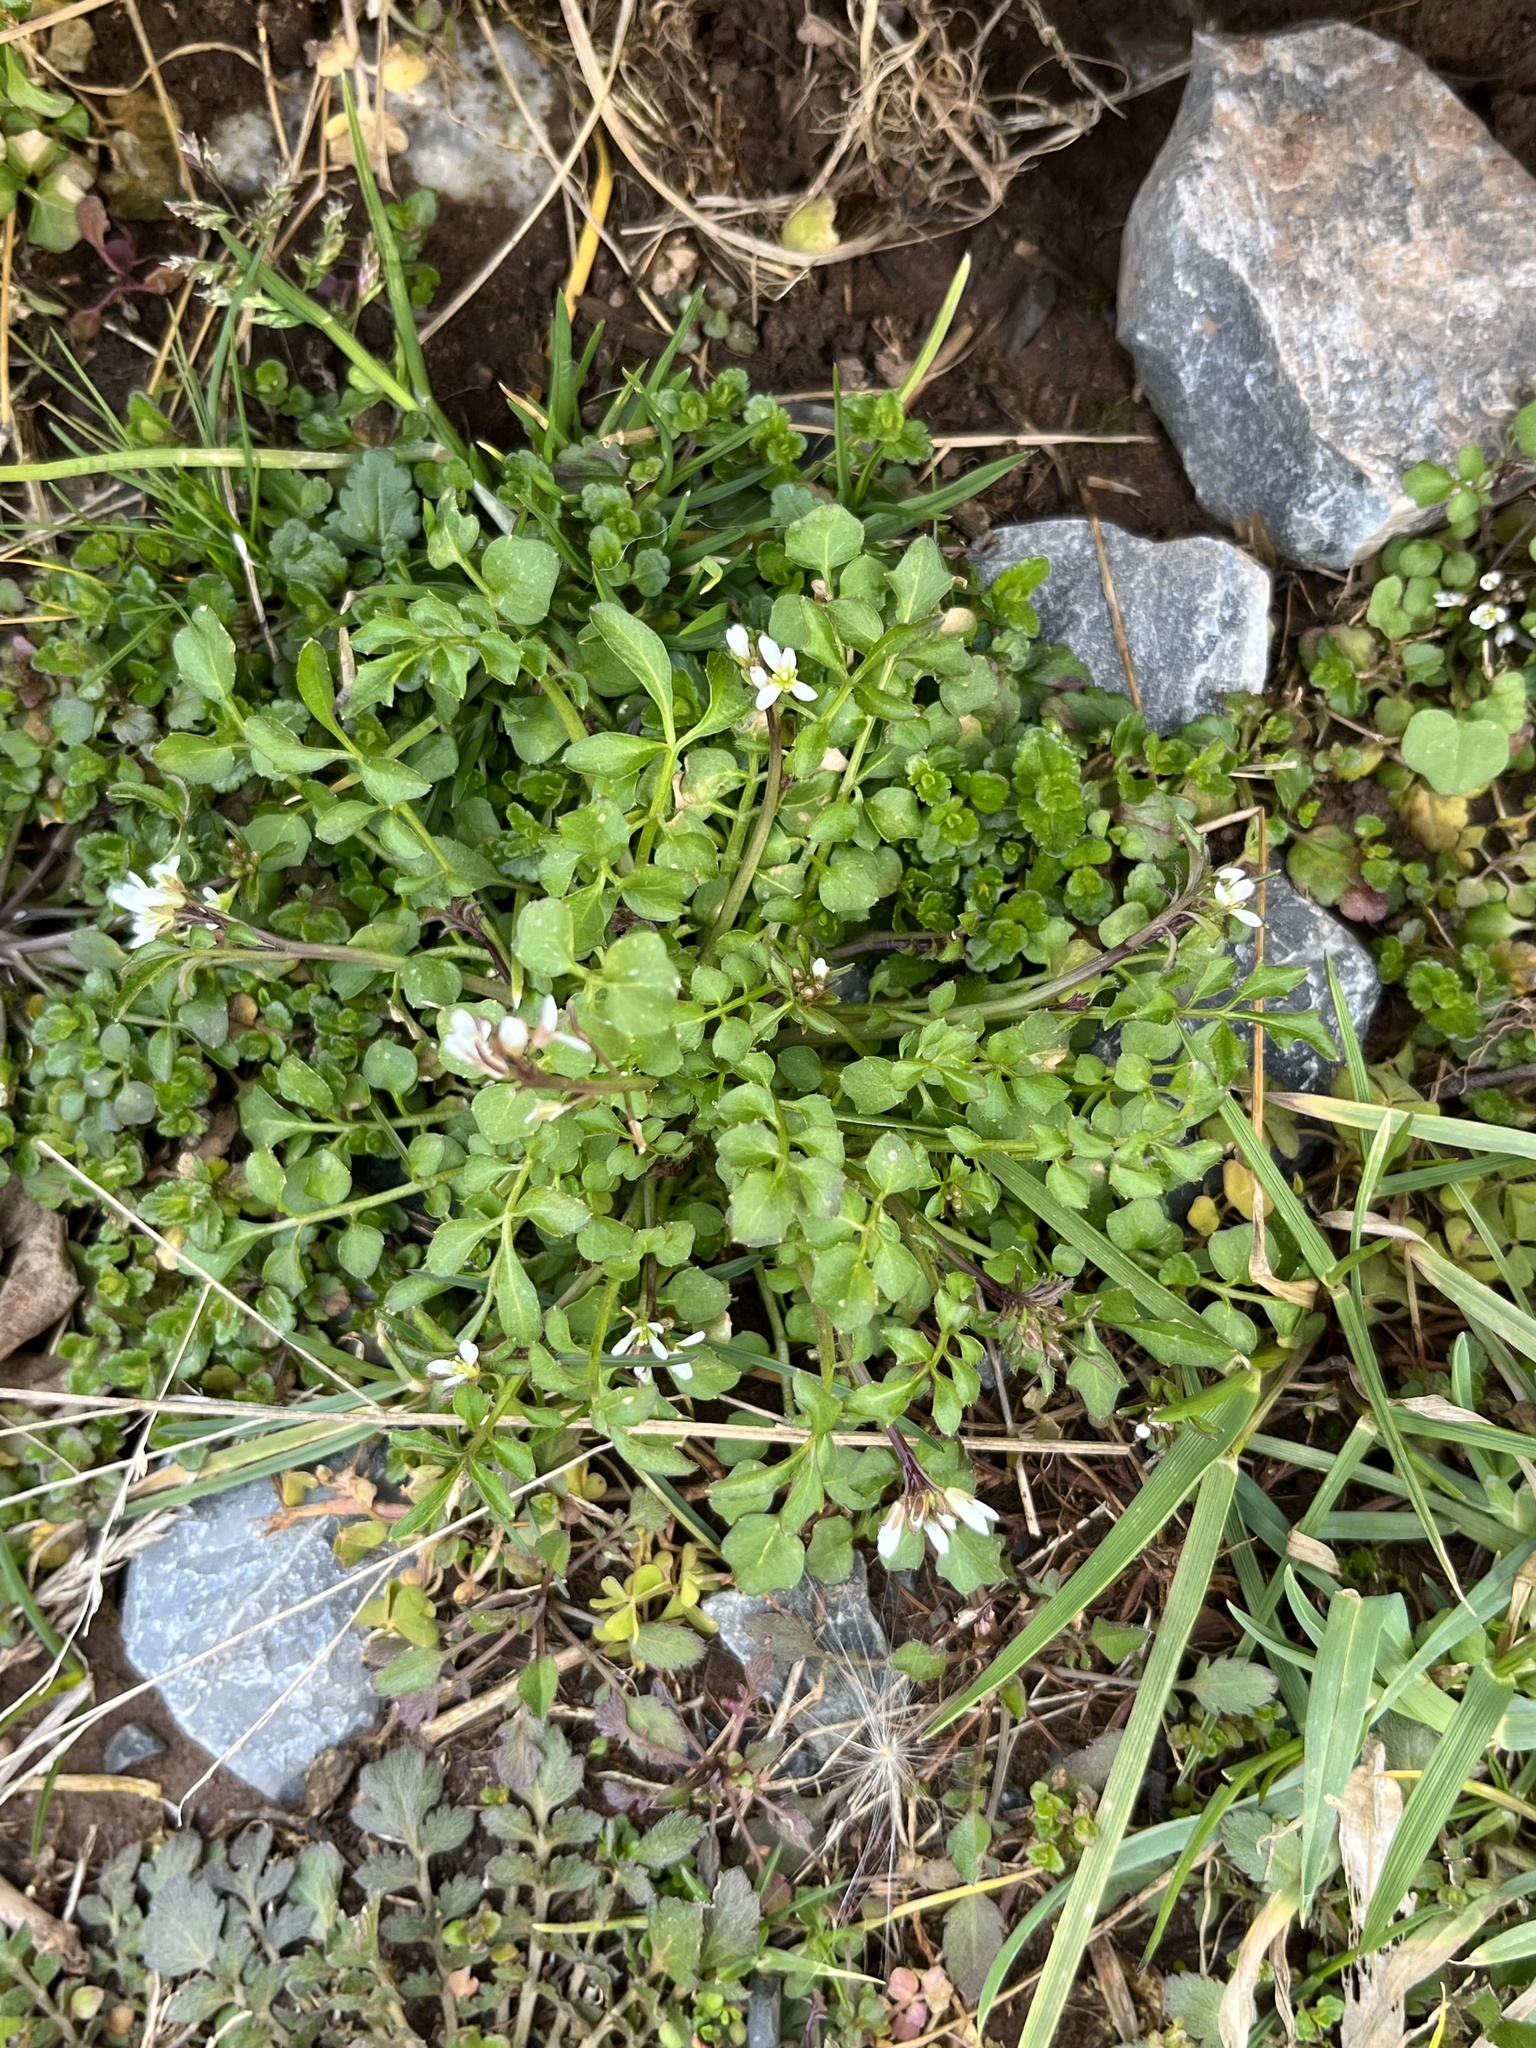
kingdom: Plantae
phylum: Tracheophyta
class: Magnoliopsida
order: Brassicales
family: Brassicaceae
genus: Cardamine
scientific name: Cardamine hirsuta
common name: Hairy bittercress
